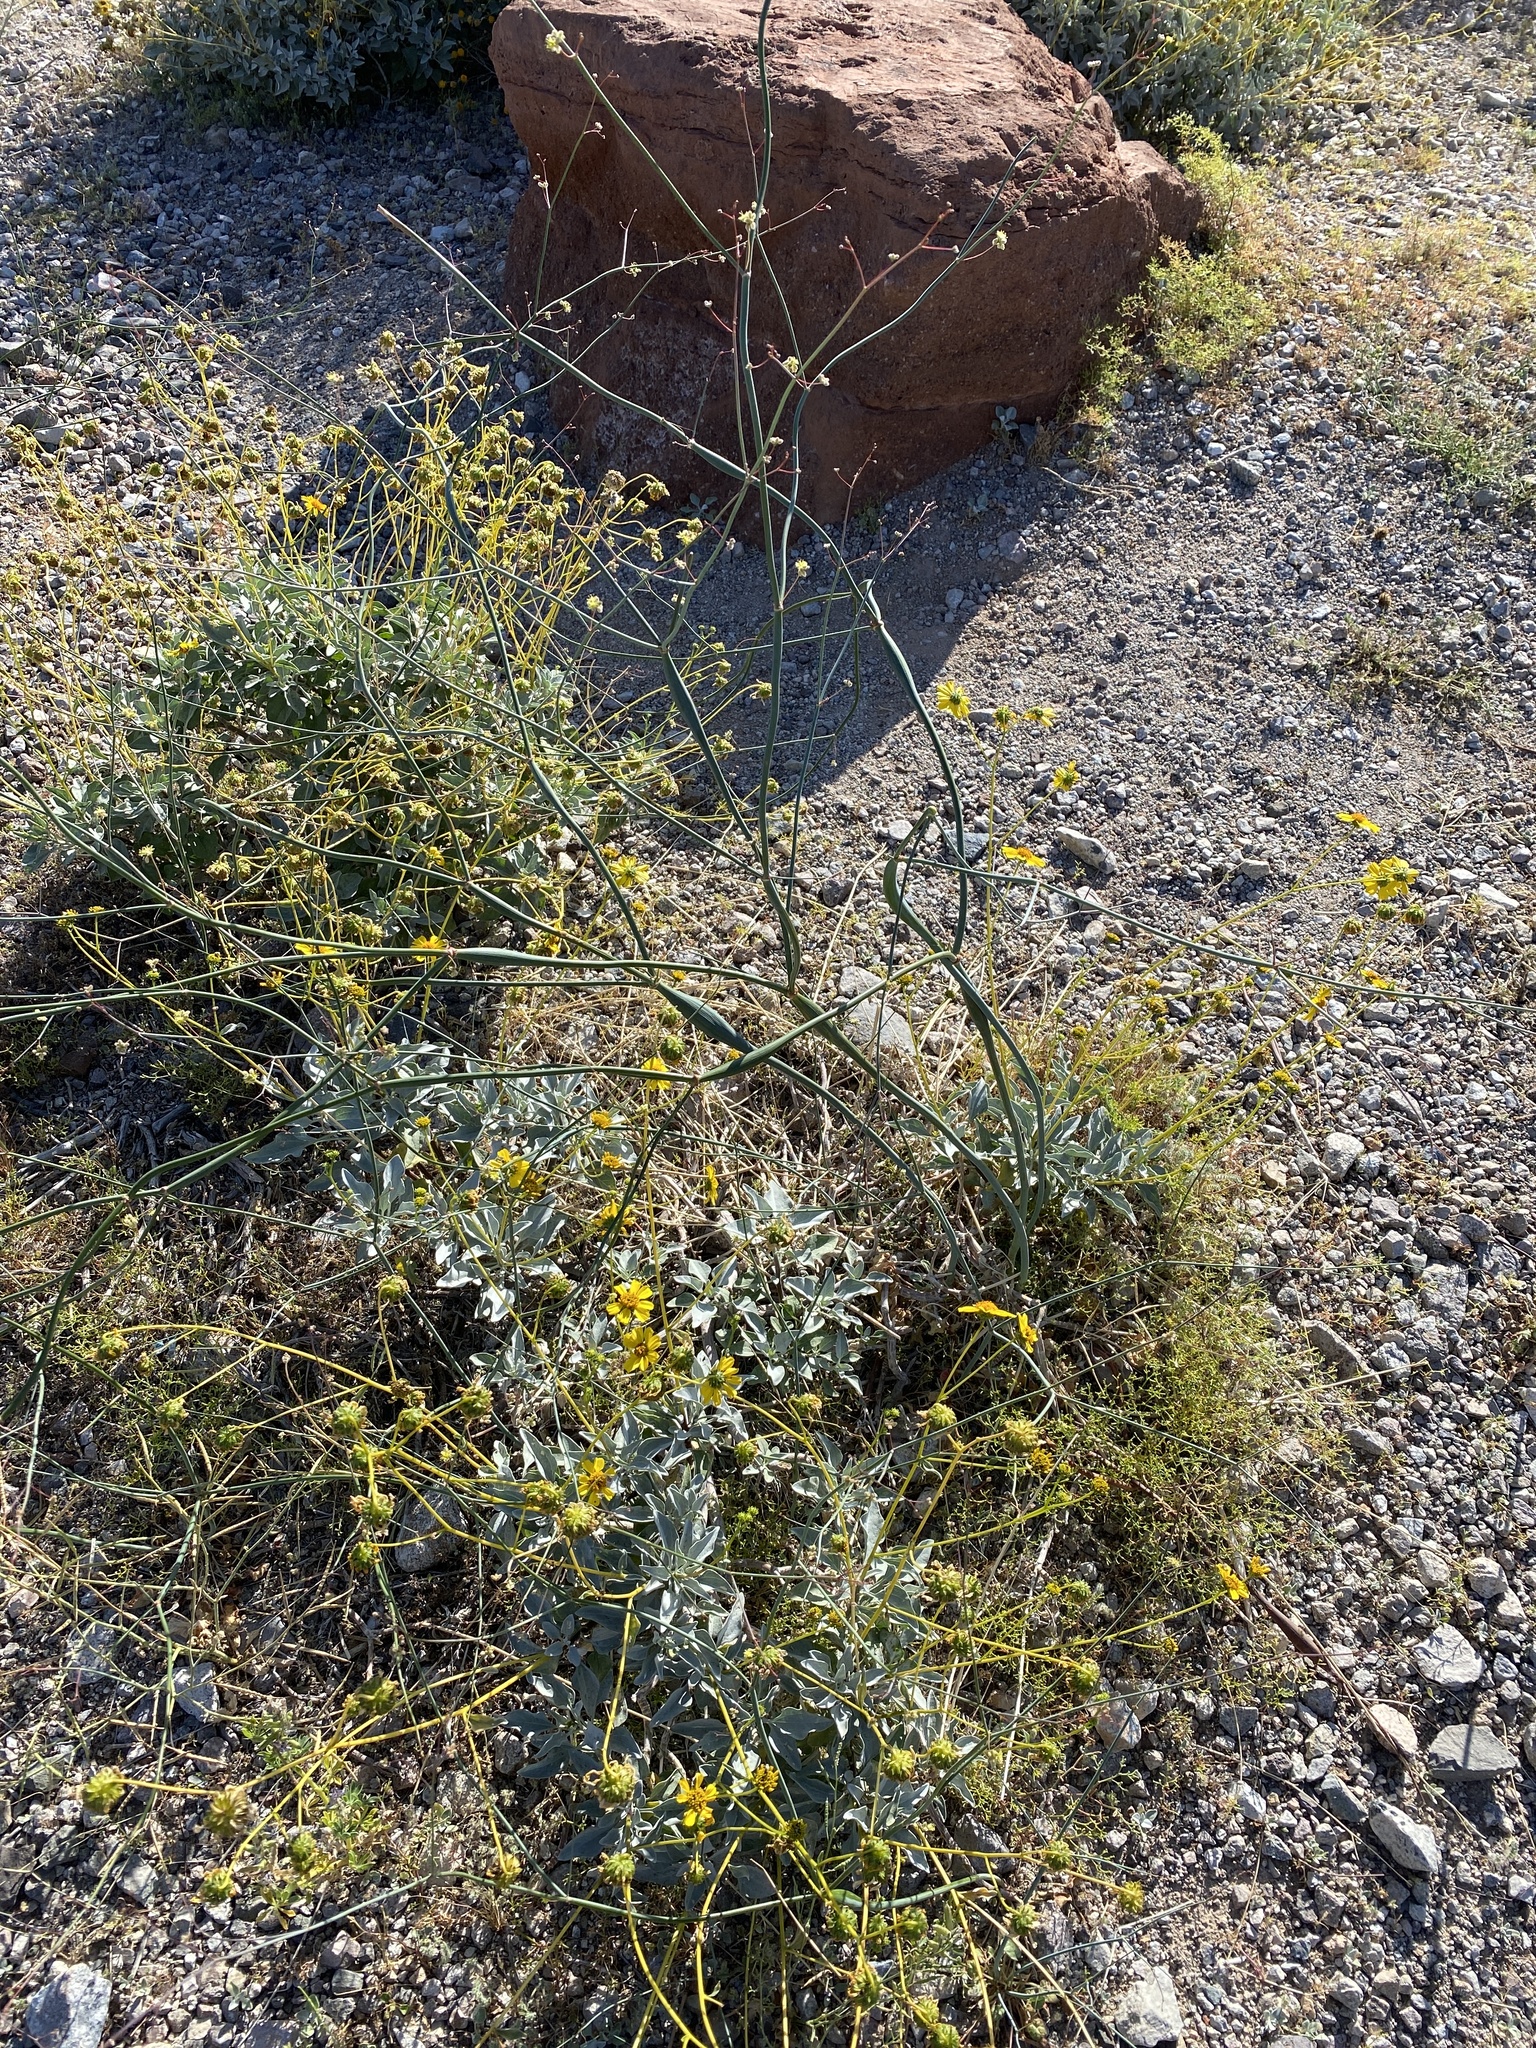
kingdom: Plantae
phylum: Tracheophyta
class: Magnoliopsida
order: Caryophyllales
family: Polygonaceae
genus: Eriogonum
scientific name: Eriogonum inflatum
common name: Desert trumpet
